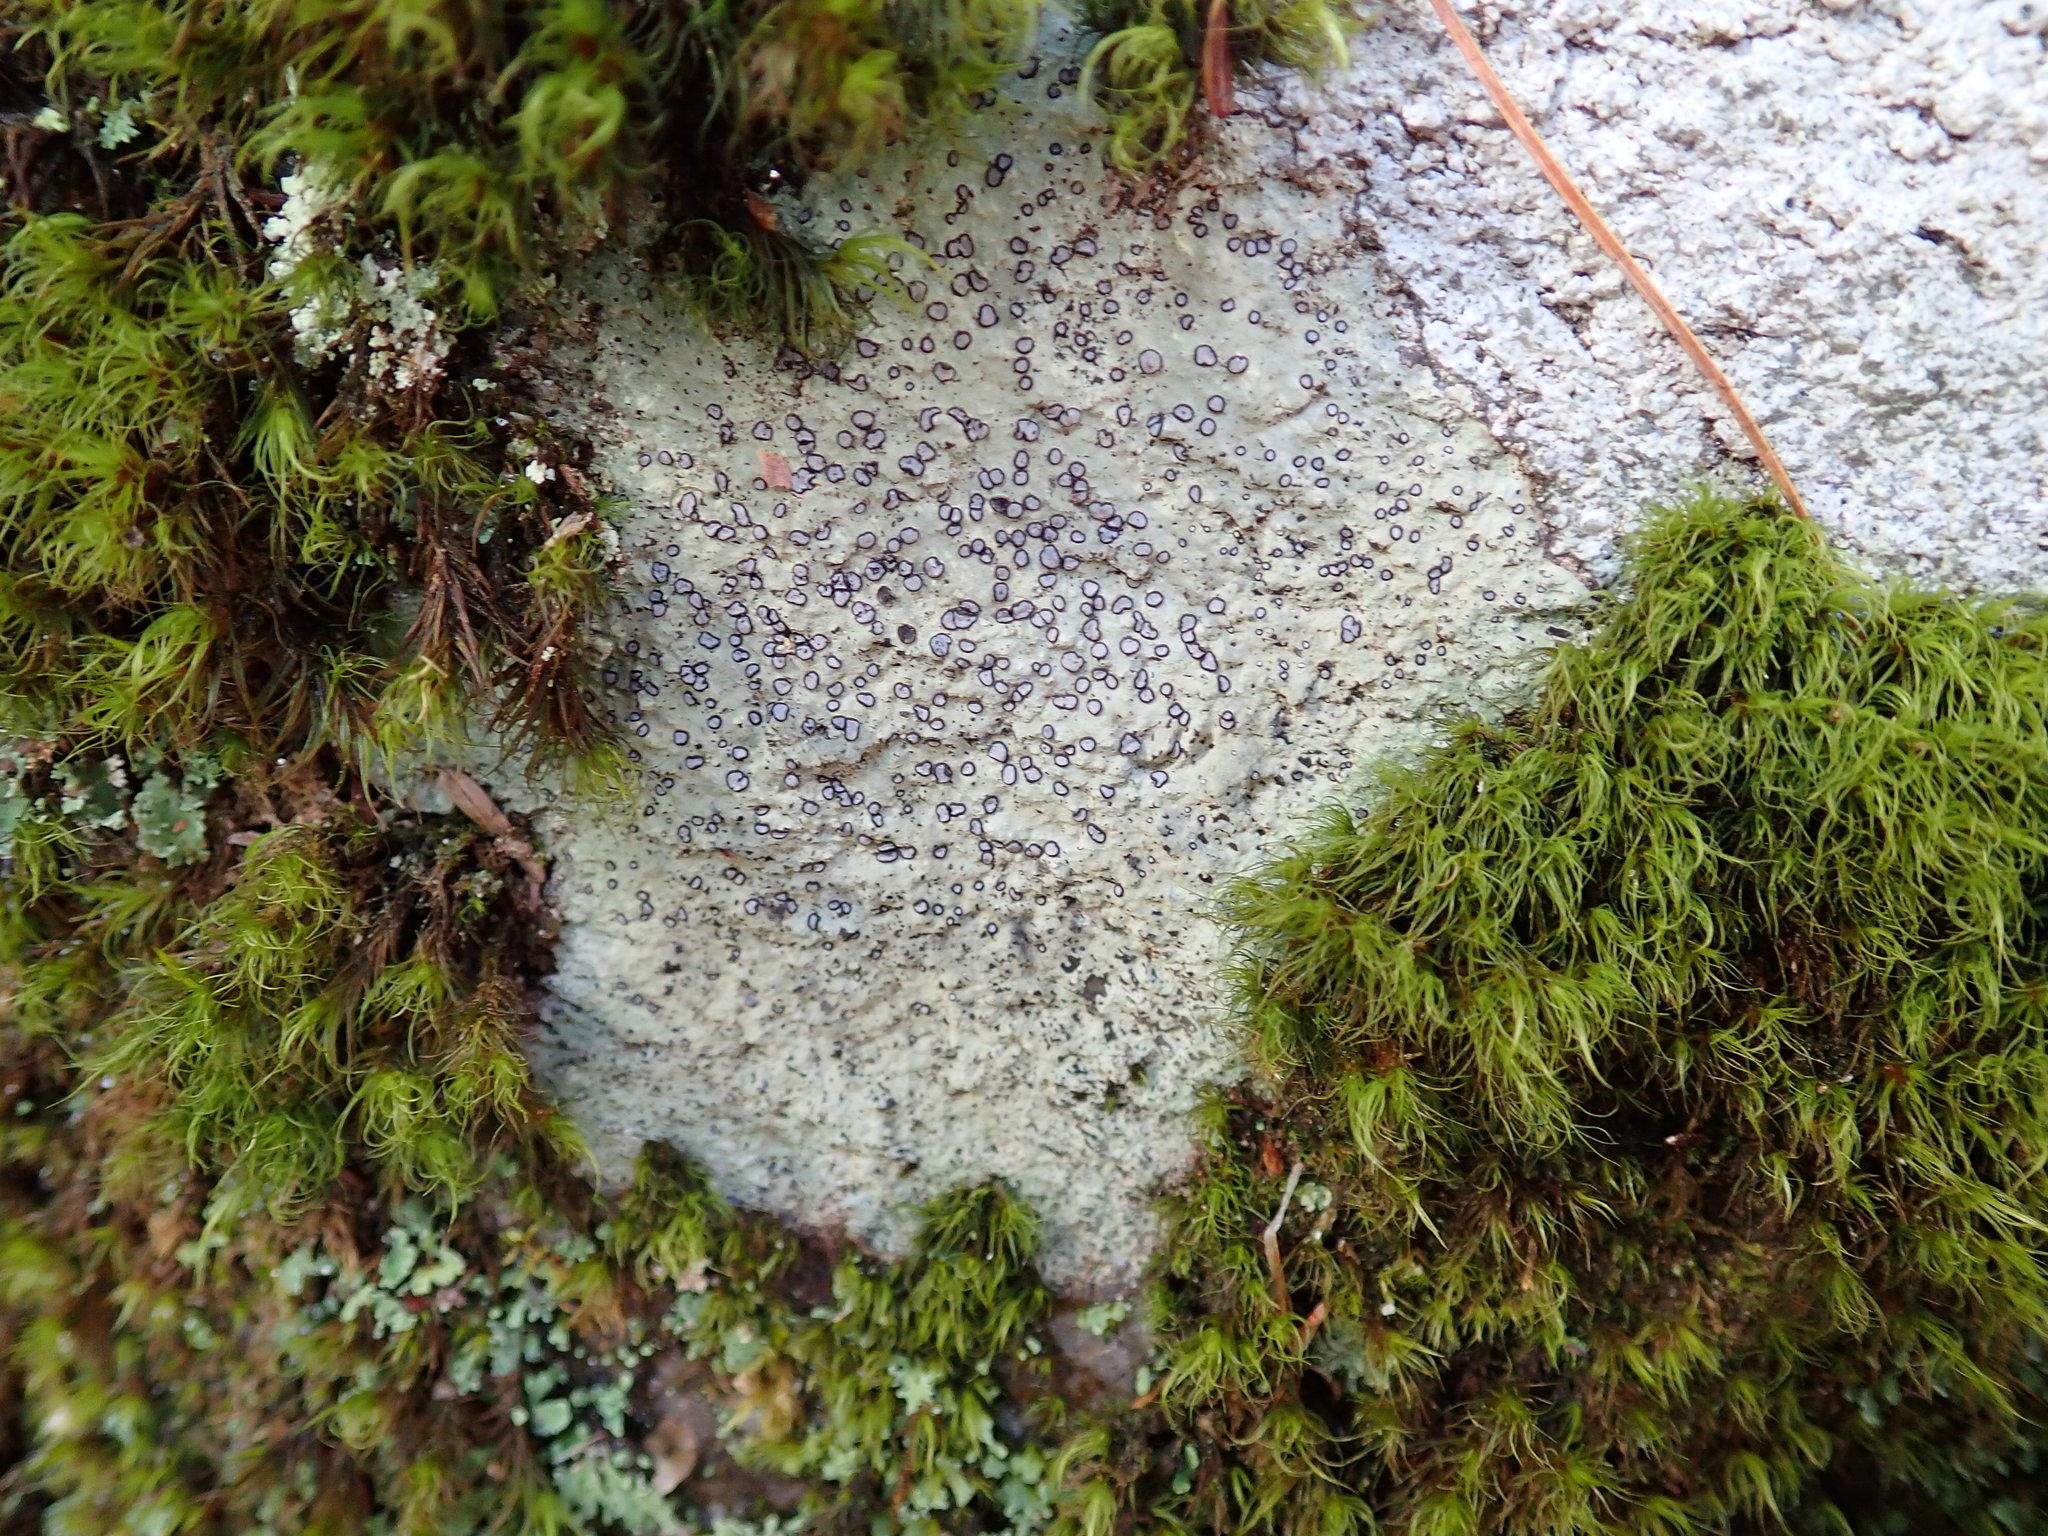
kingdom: Fungi
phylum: Ascomycota
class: Lecanoromycetes
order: Lecideales
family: Lecideaceae
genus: Porpidia
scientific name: Porpidia albocaerulescens
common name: Smokey-eyed boulder lichen
